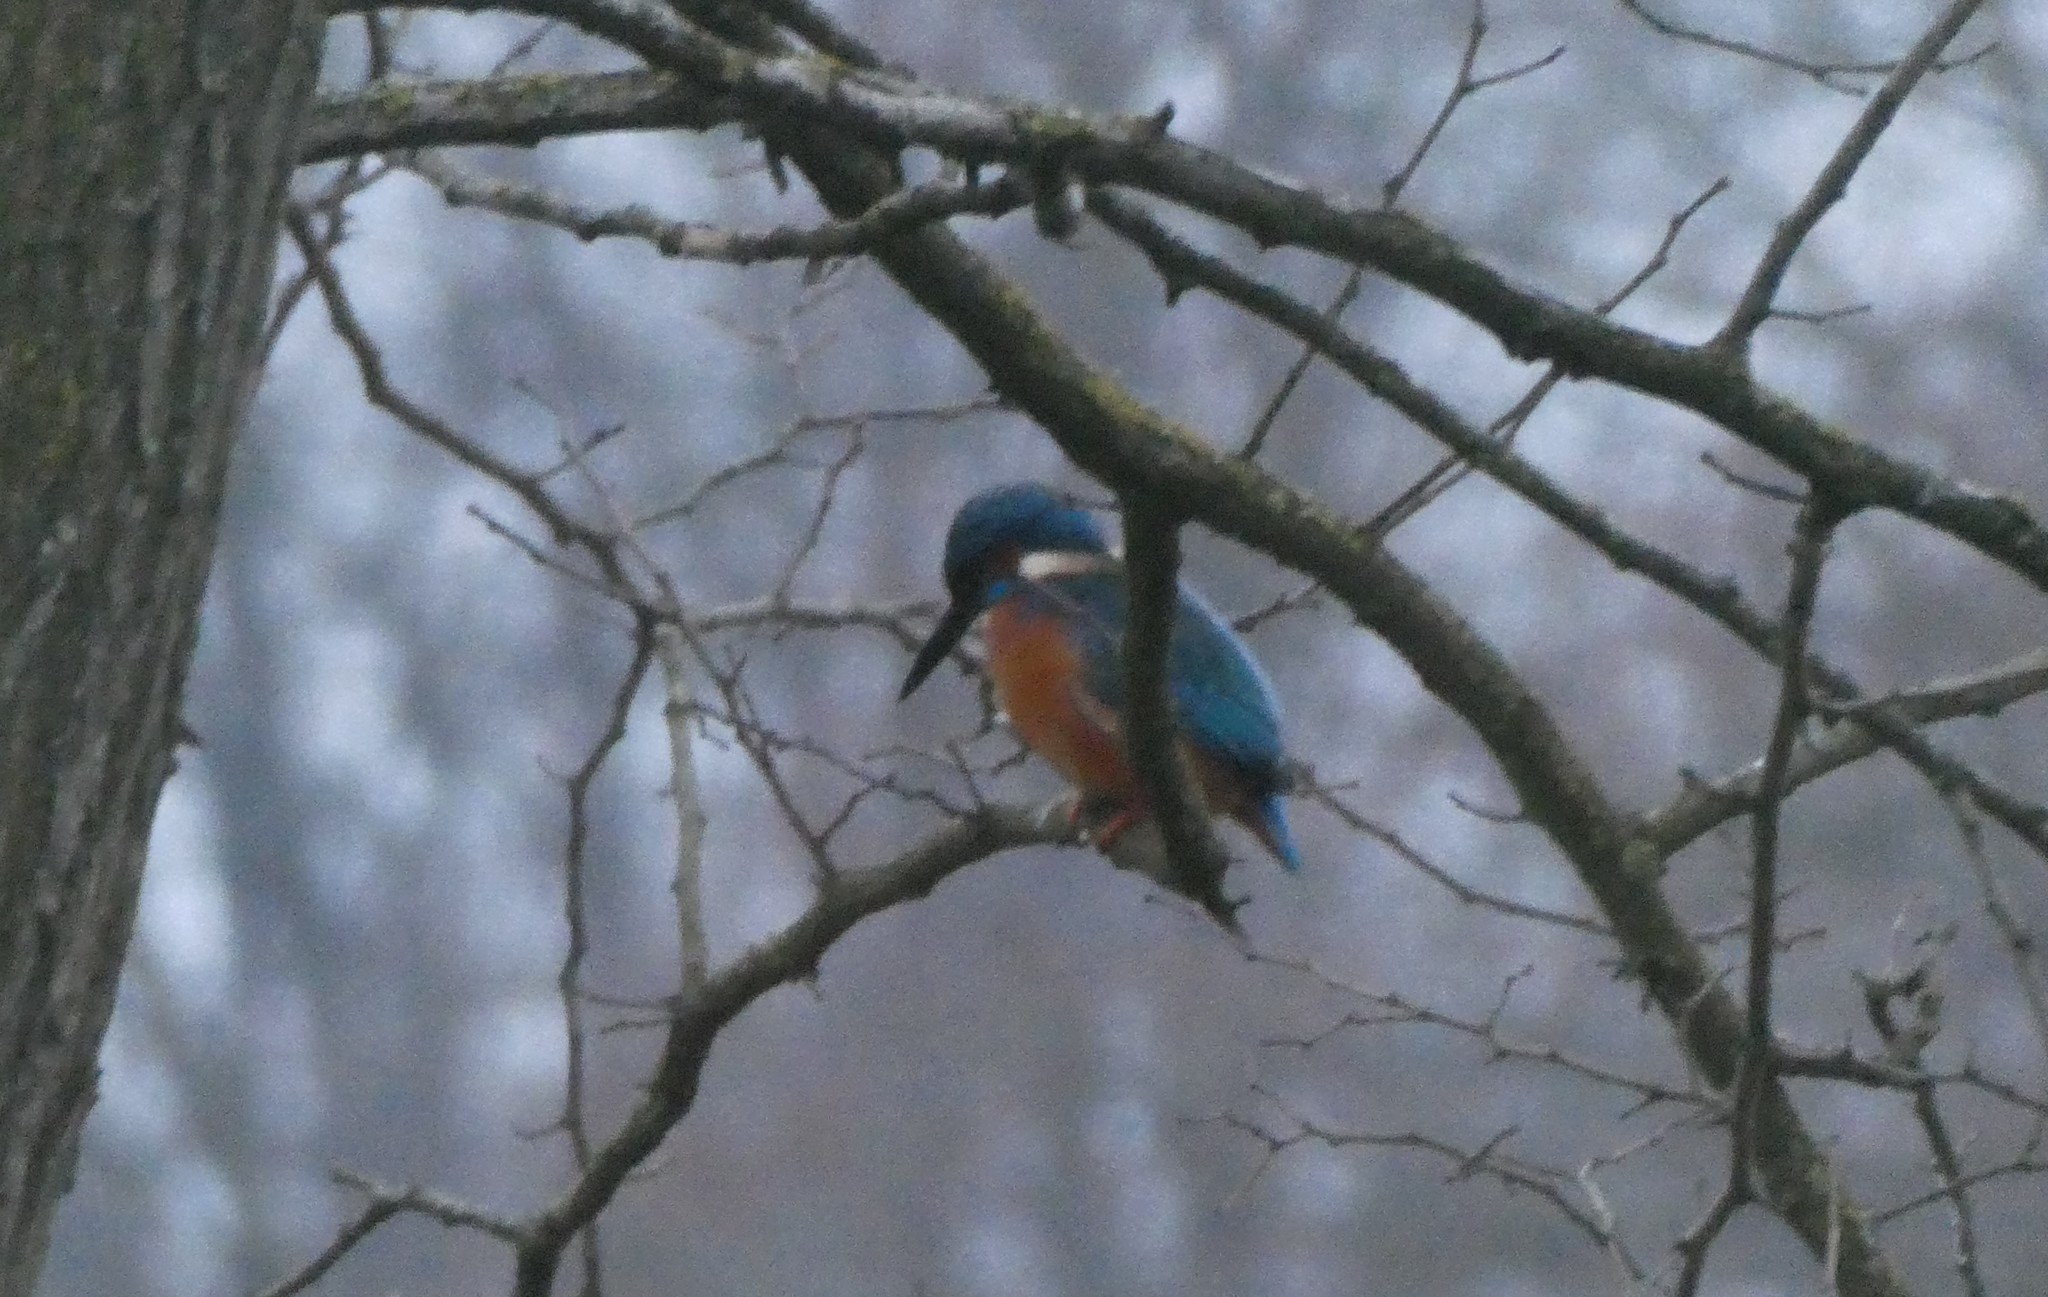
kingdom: Animalia
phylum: Chordata
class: Aves
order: Coraciiformes
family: Alcedinidae
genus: Alcedo
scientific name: Alcedo atthis
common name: Common kingfisher
